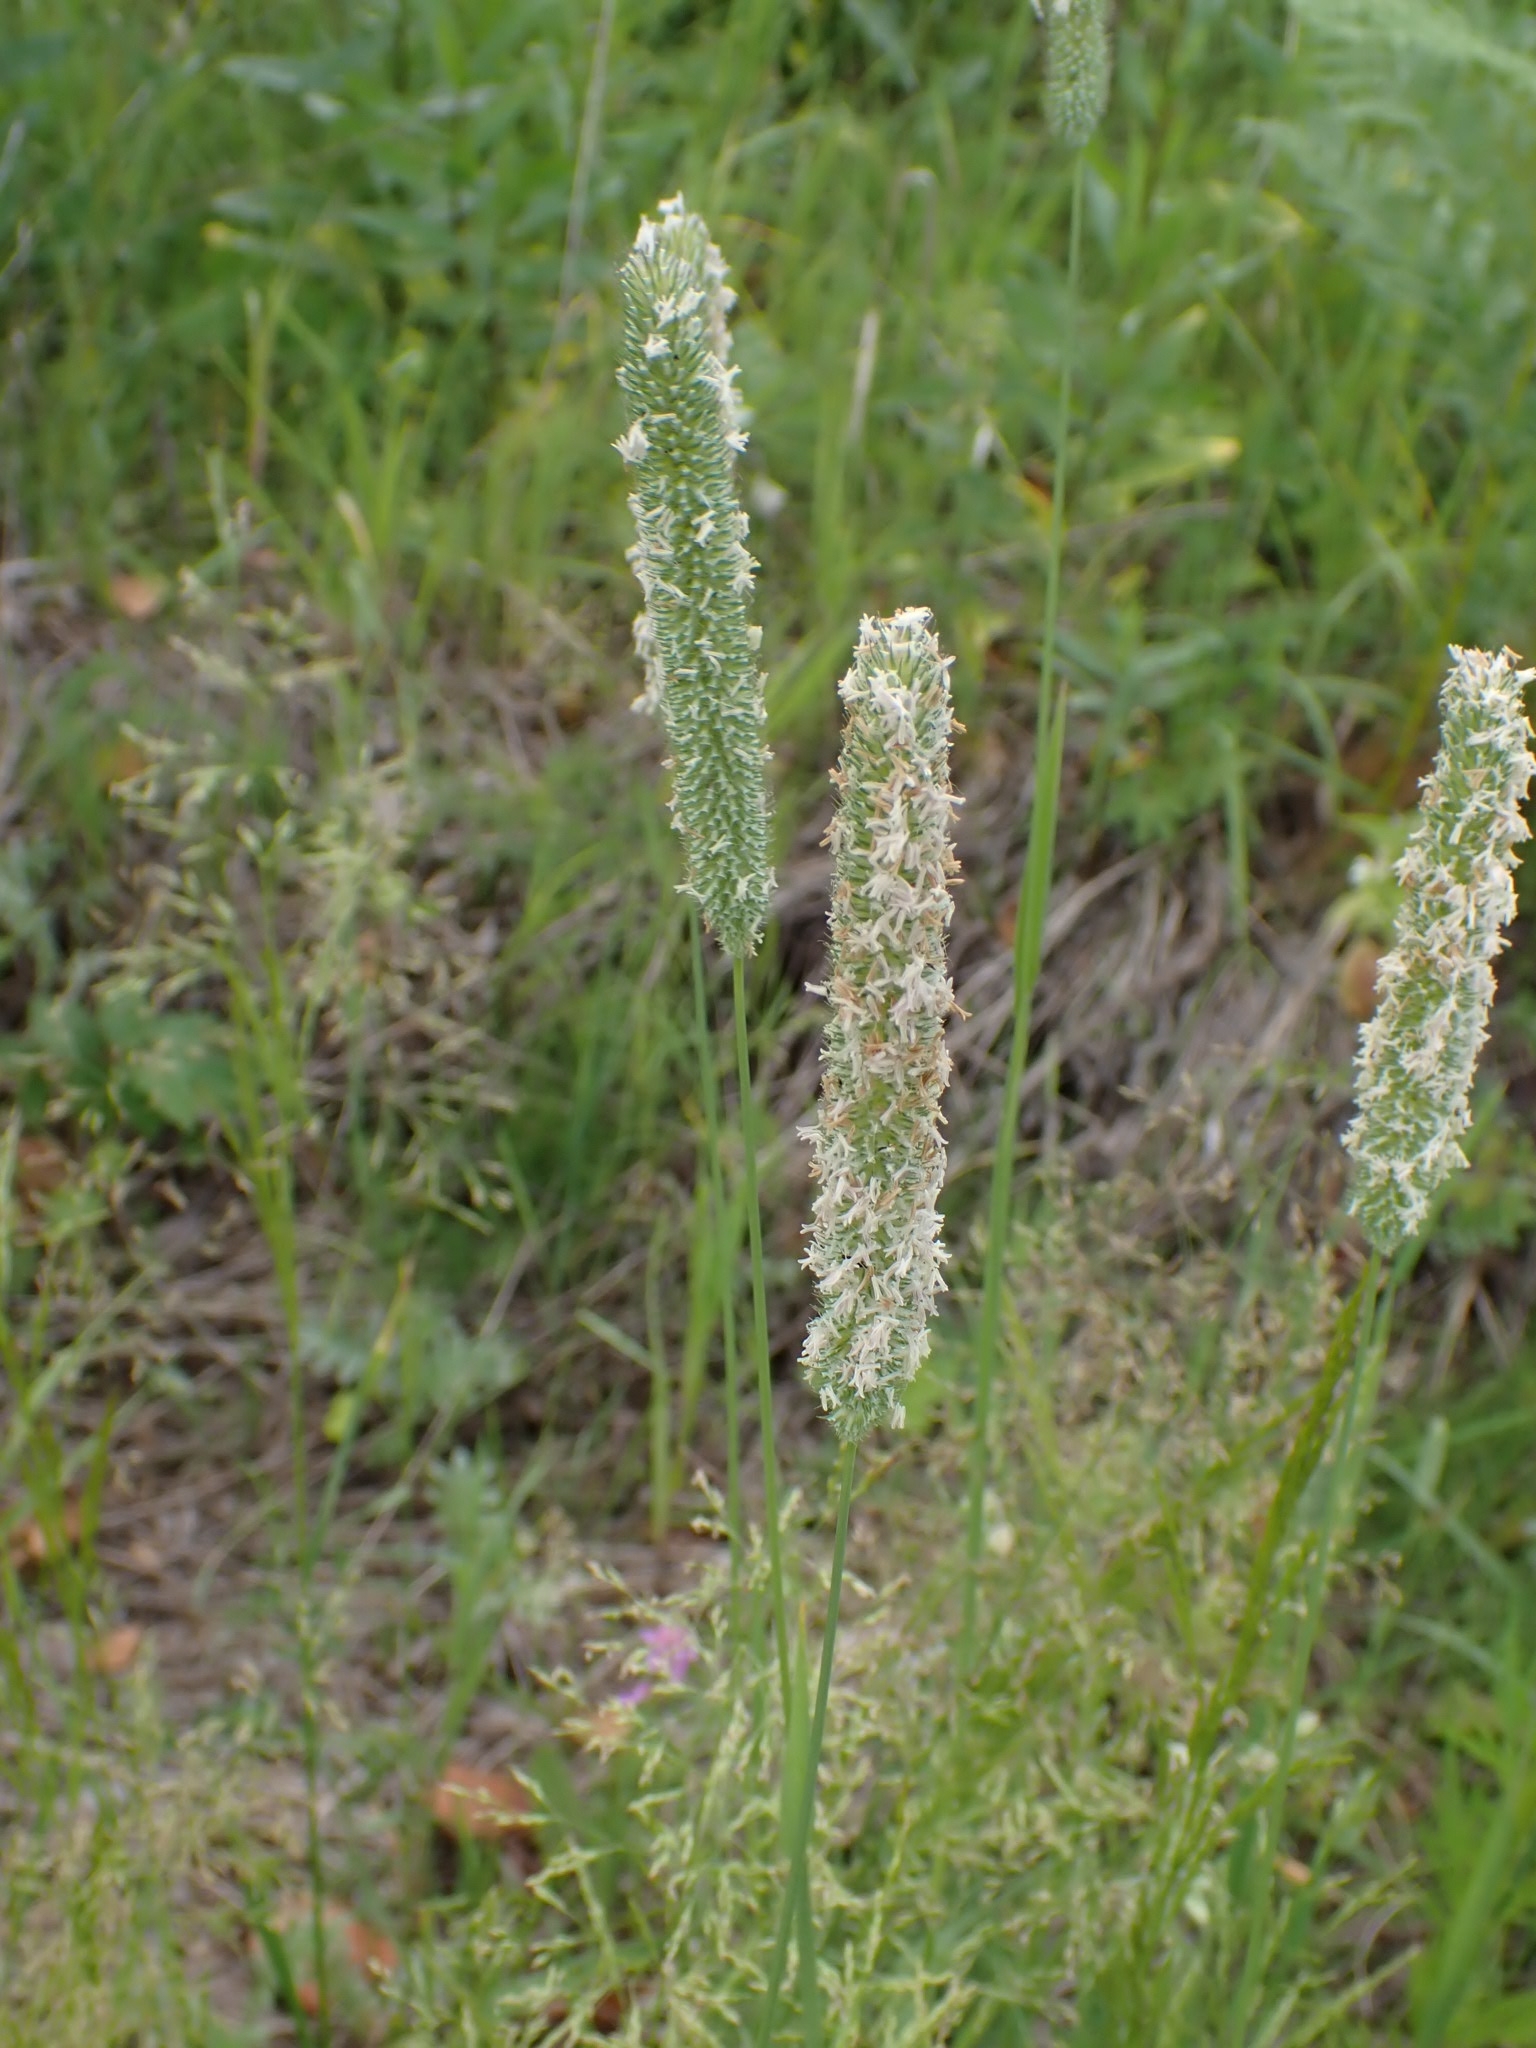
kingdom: Plantae
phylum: Tracheophyta
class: Liliopsida
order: Poales
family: Poaceae
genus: Phleum
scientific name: Phleum pratense
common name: Timothy grass
